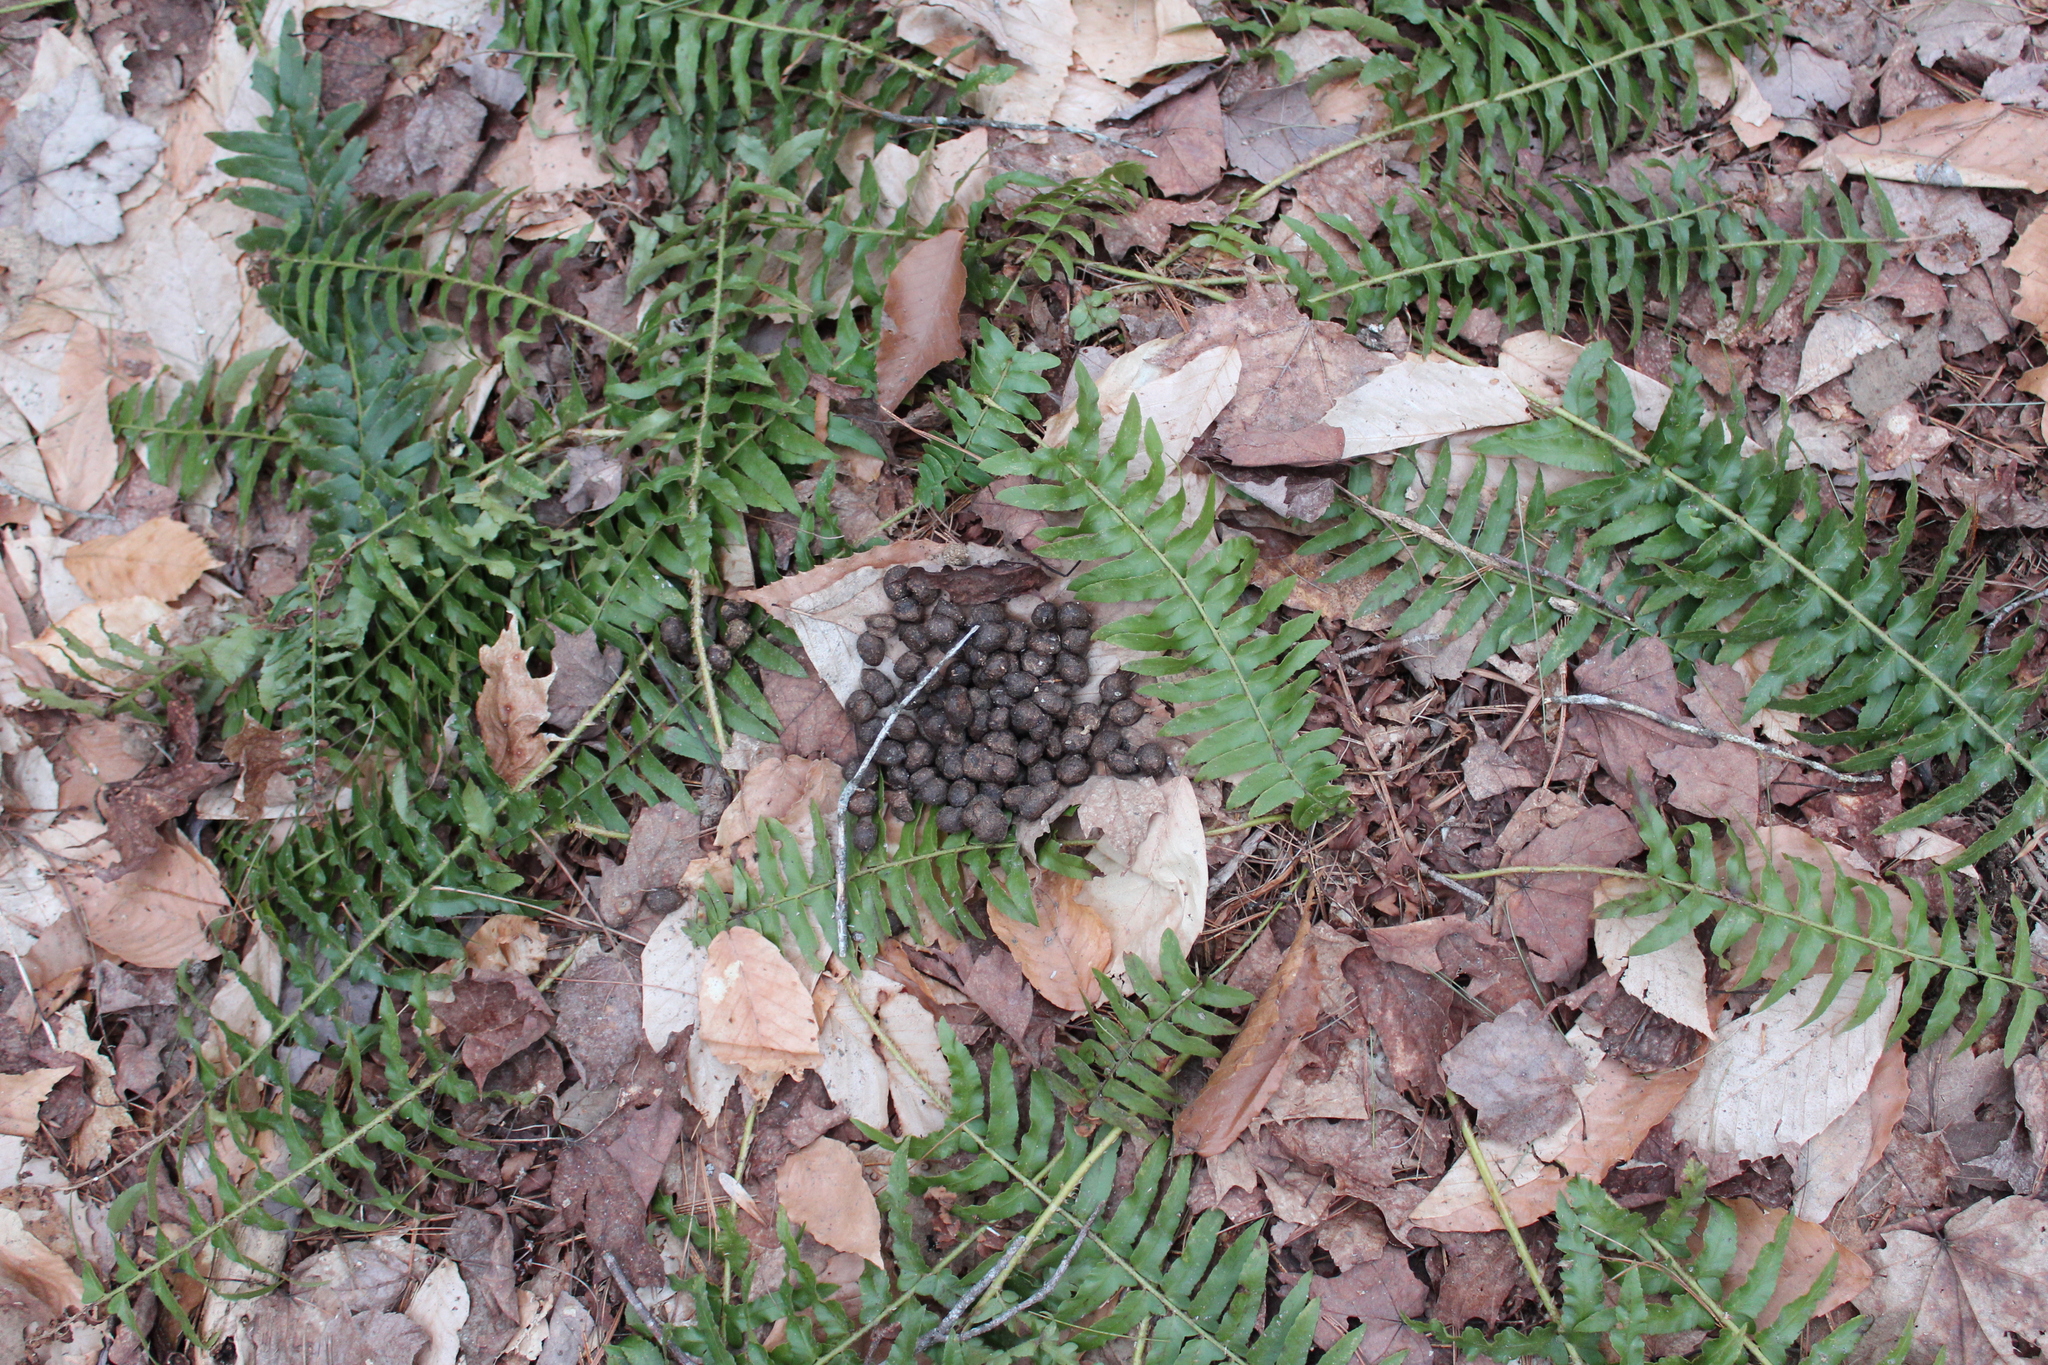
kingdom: Animalia
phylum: Chordata
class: Mammalia
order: Artiodactyla
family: Cervidae
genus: Odocoileus
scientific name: Odocoileus virginianus
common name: White-tailed deer
